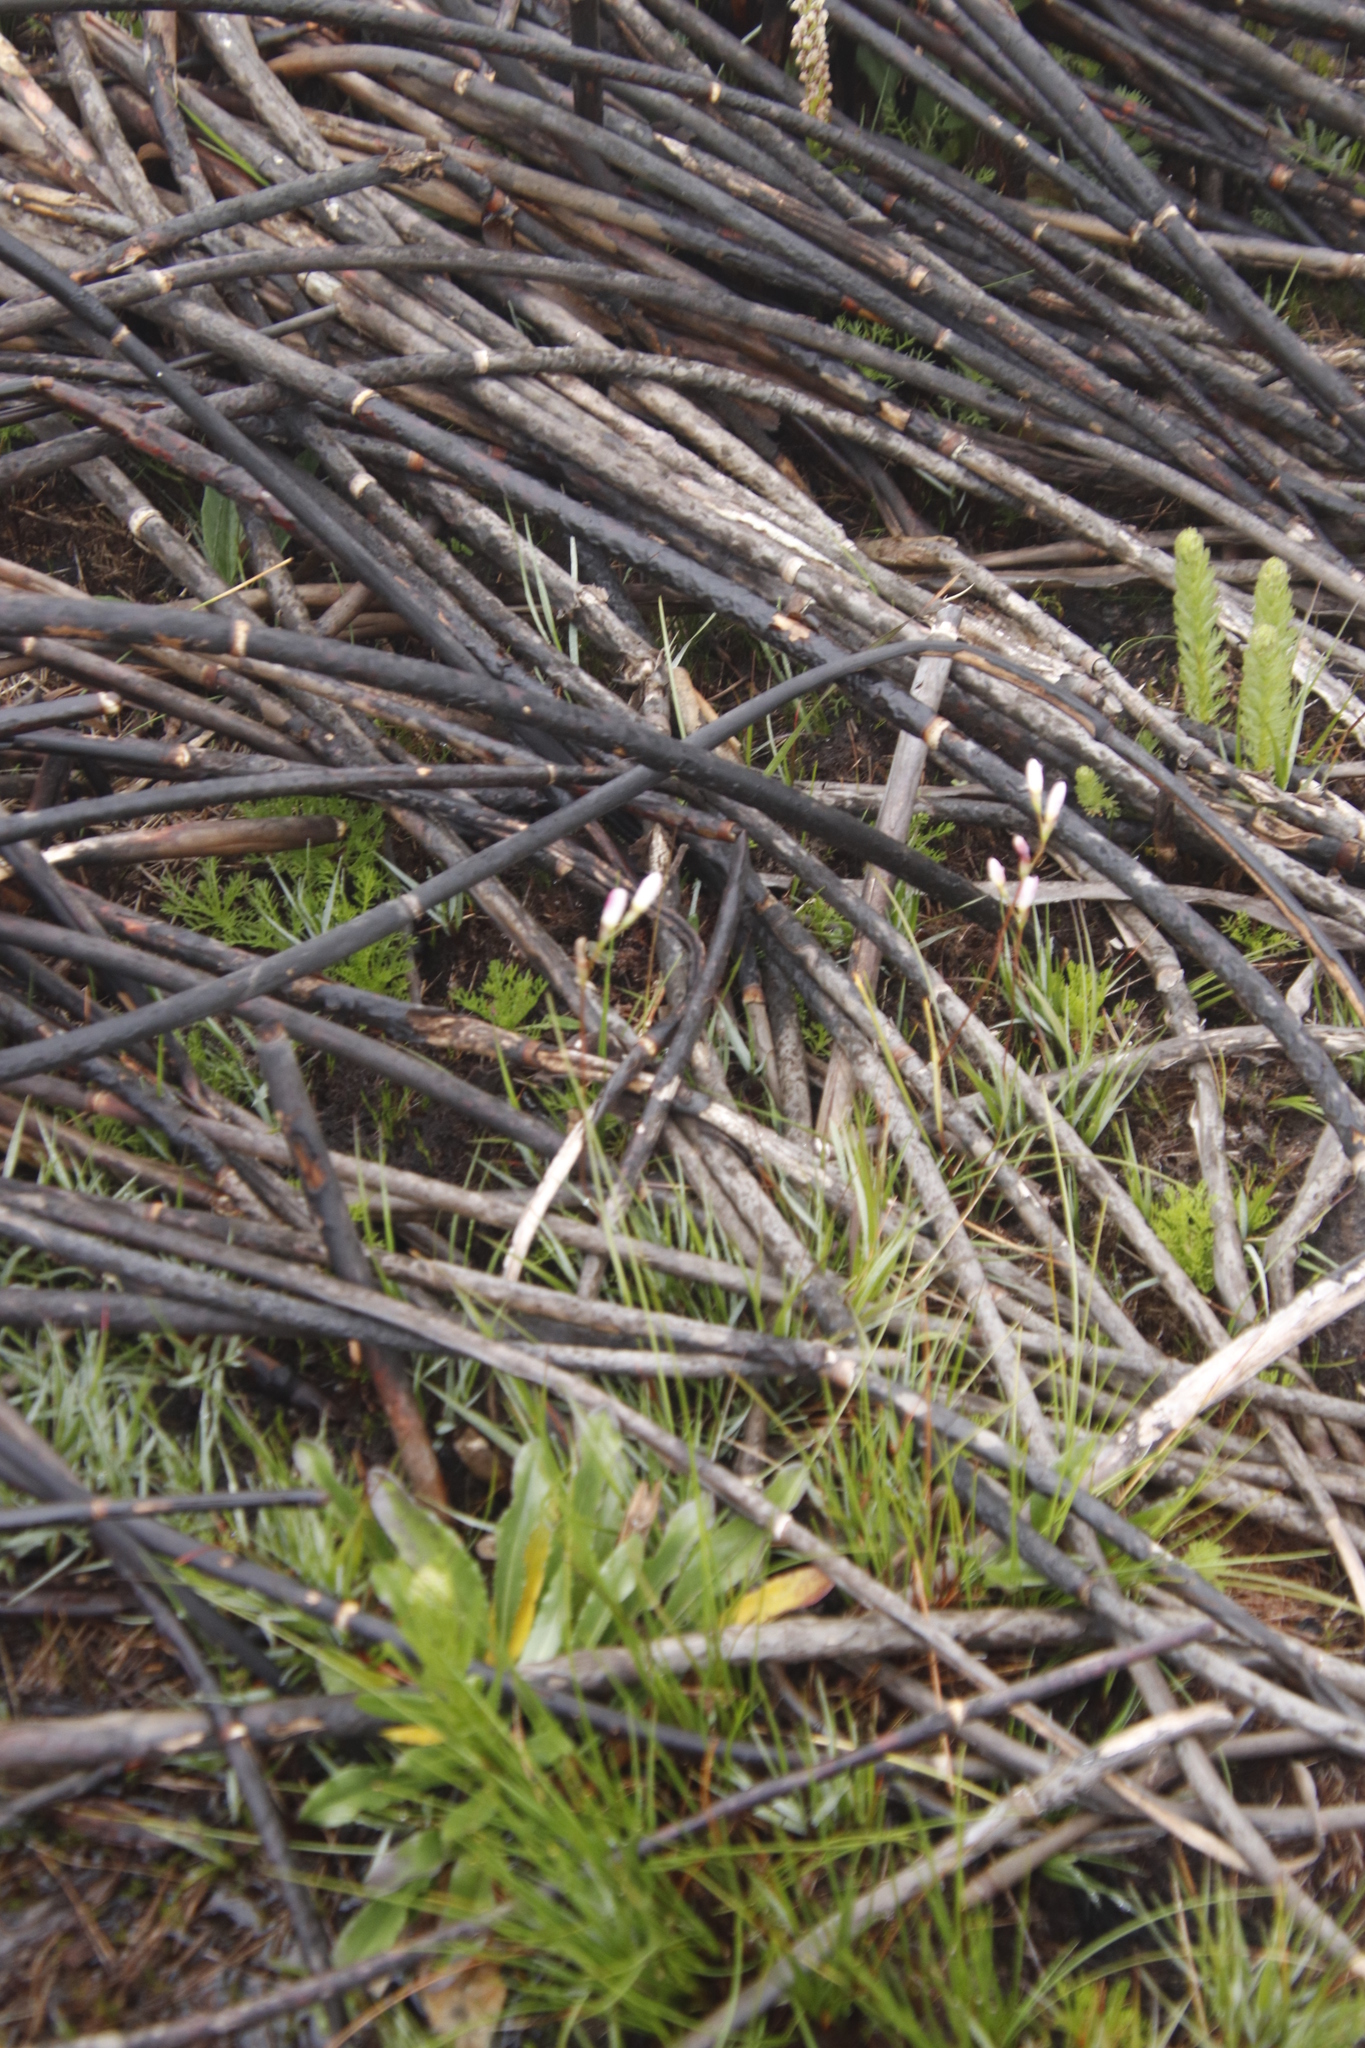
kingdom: Plantae
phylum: Tracheophyta
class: Liliopsida
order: Poales
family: Restionaceae
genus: Elegia
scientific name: Elegia mucronata
